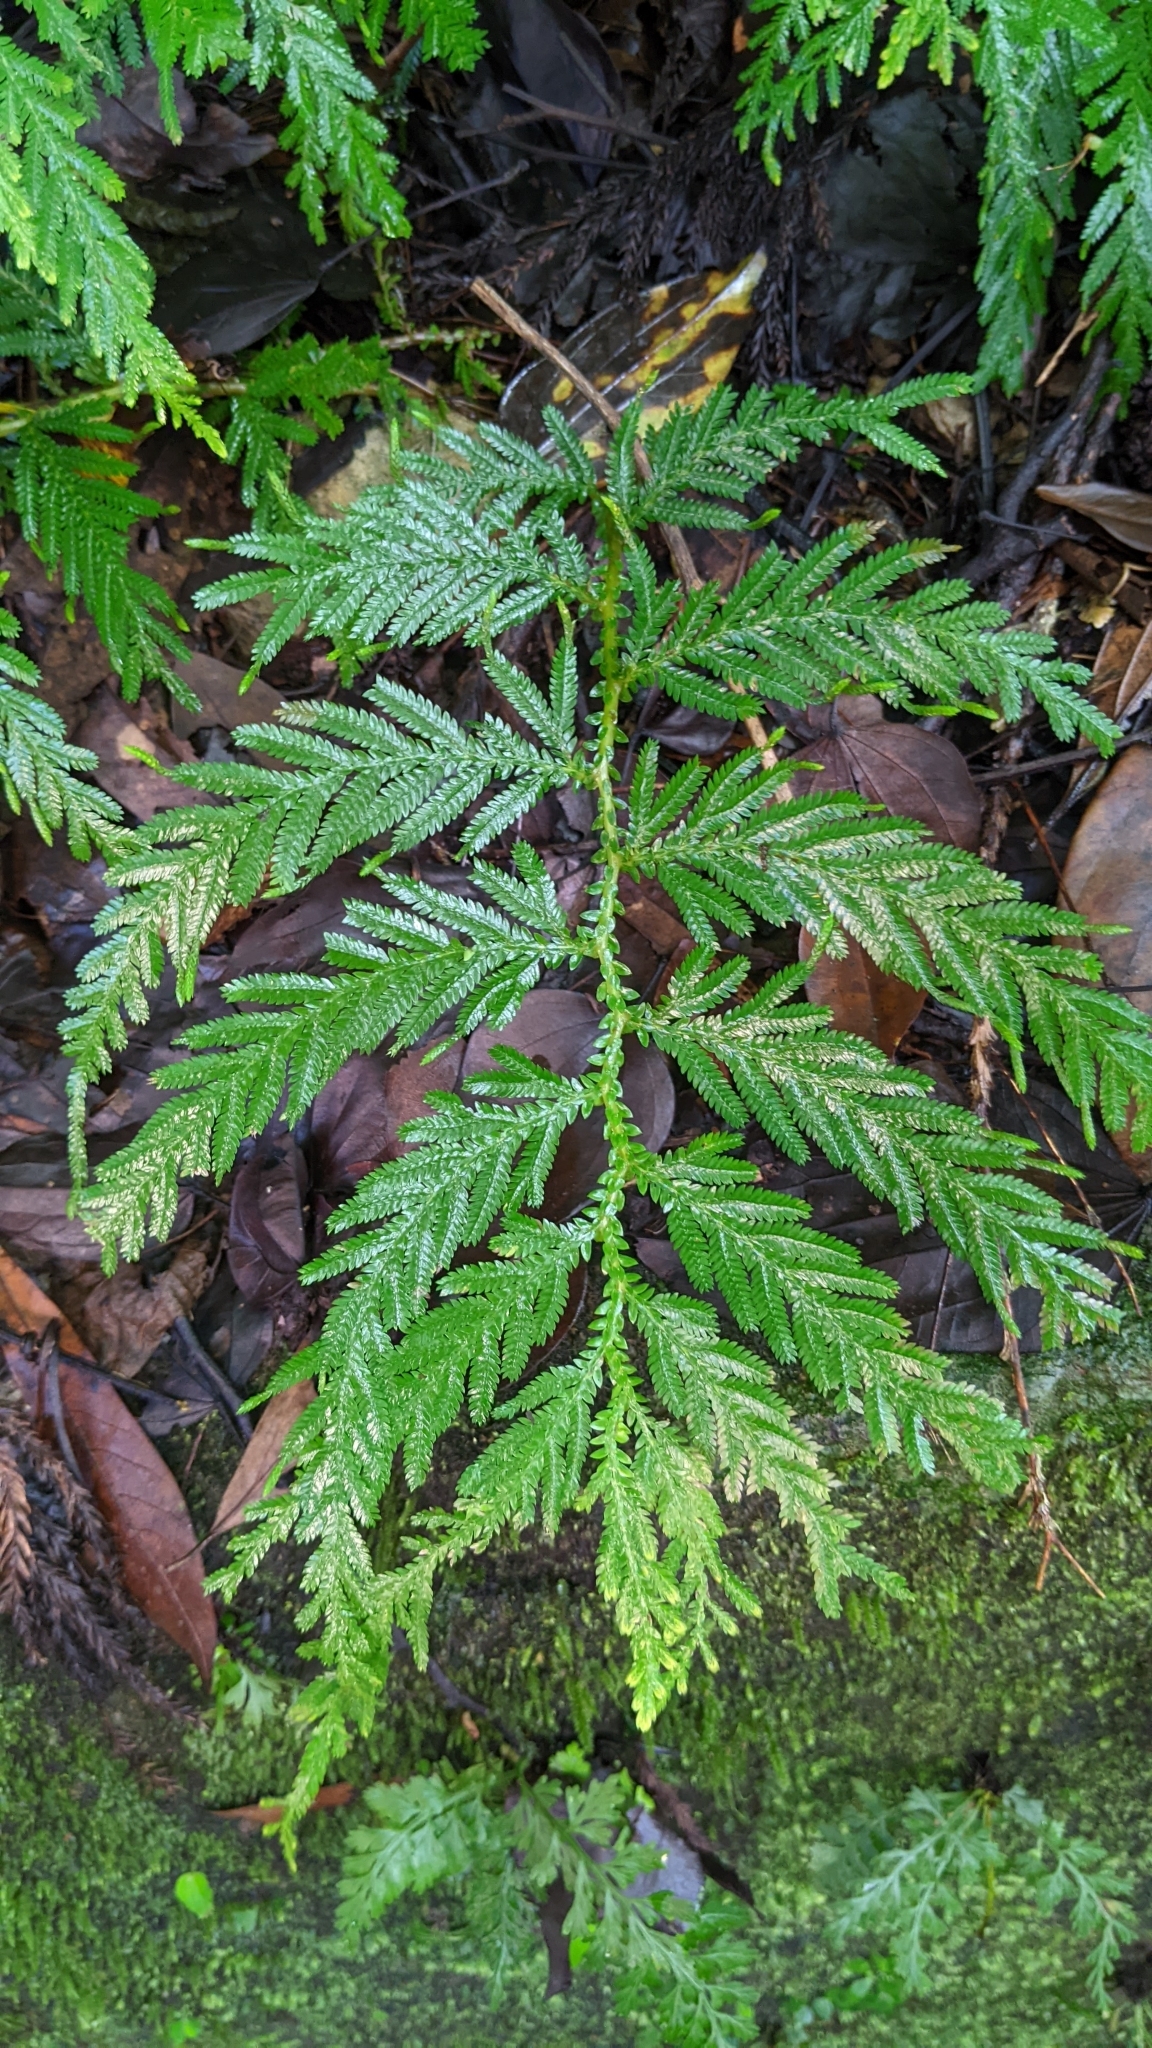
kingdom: Plantae
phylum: Tracheophyta
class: Lycopodiopsida
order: Selaginellales
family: Selaginellaceae
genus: Selaginella
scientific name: Selaginella delicatula
